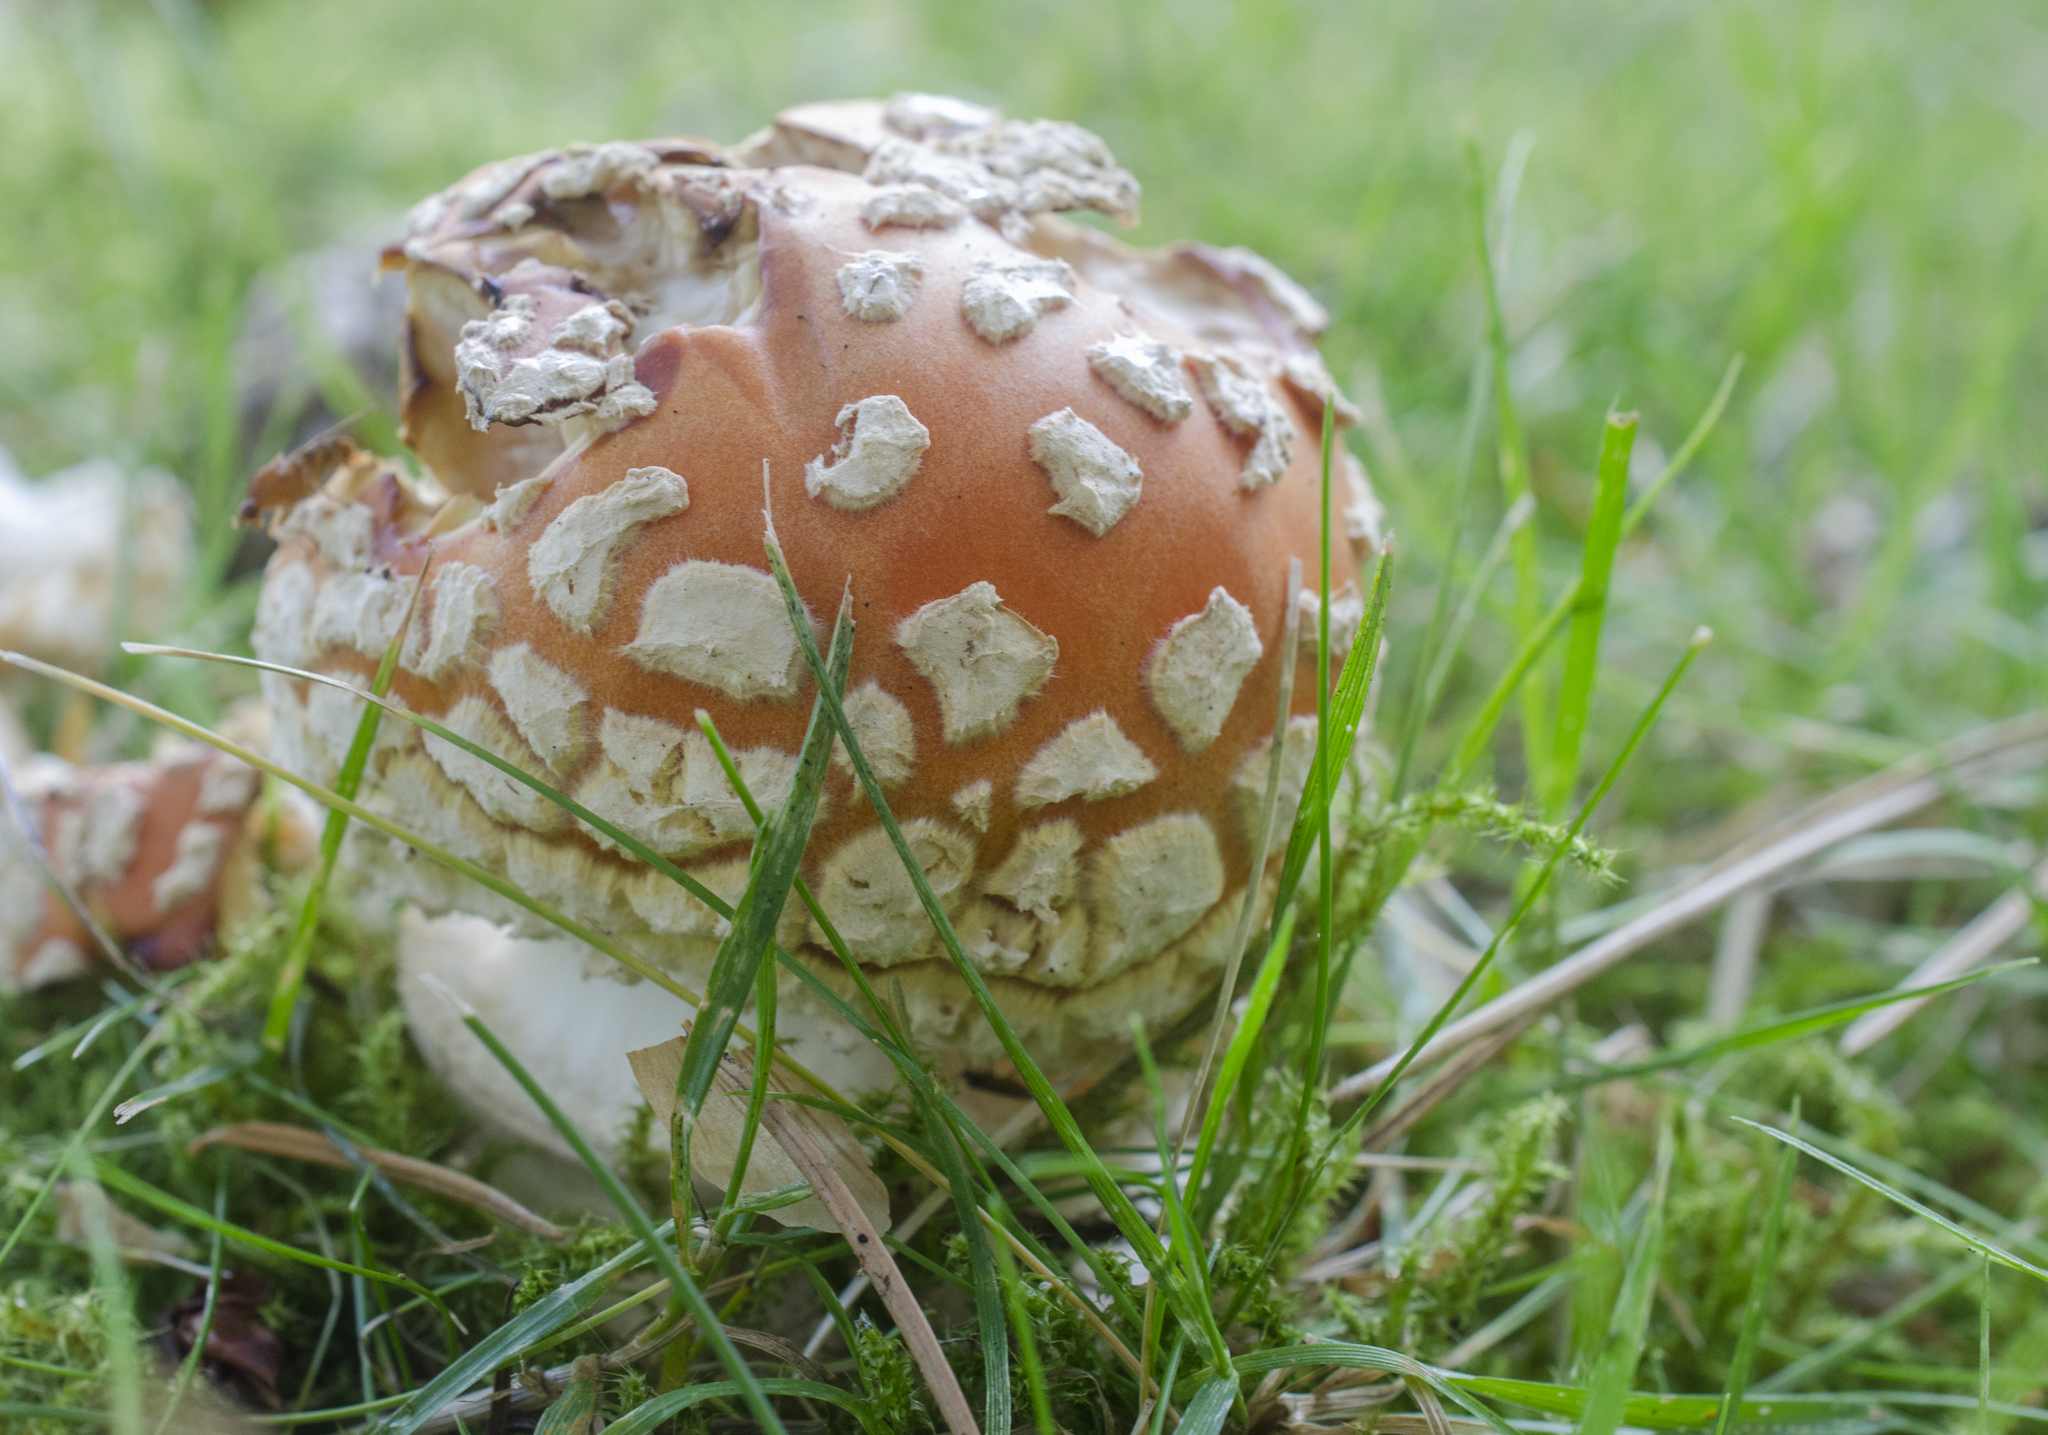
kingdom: Fungi
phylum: Basidiomycota
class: Agaricomycetes
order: Agaricales
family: Amanitaceae
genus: Amanita
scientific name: Amanita muscaria
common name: Fly agaric
